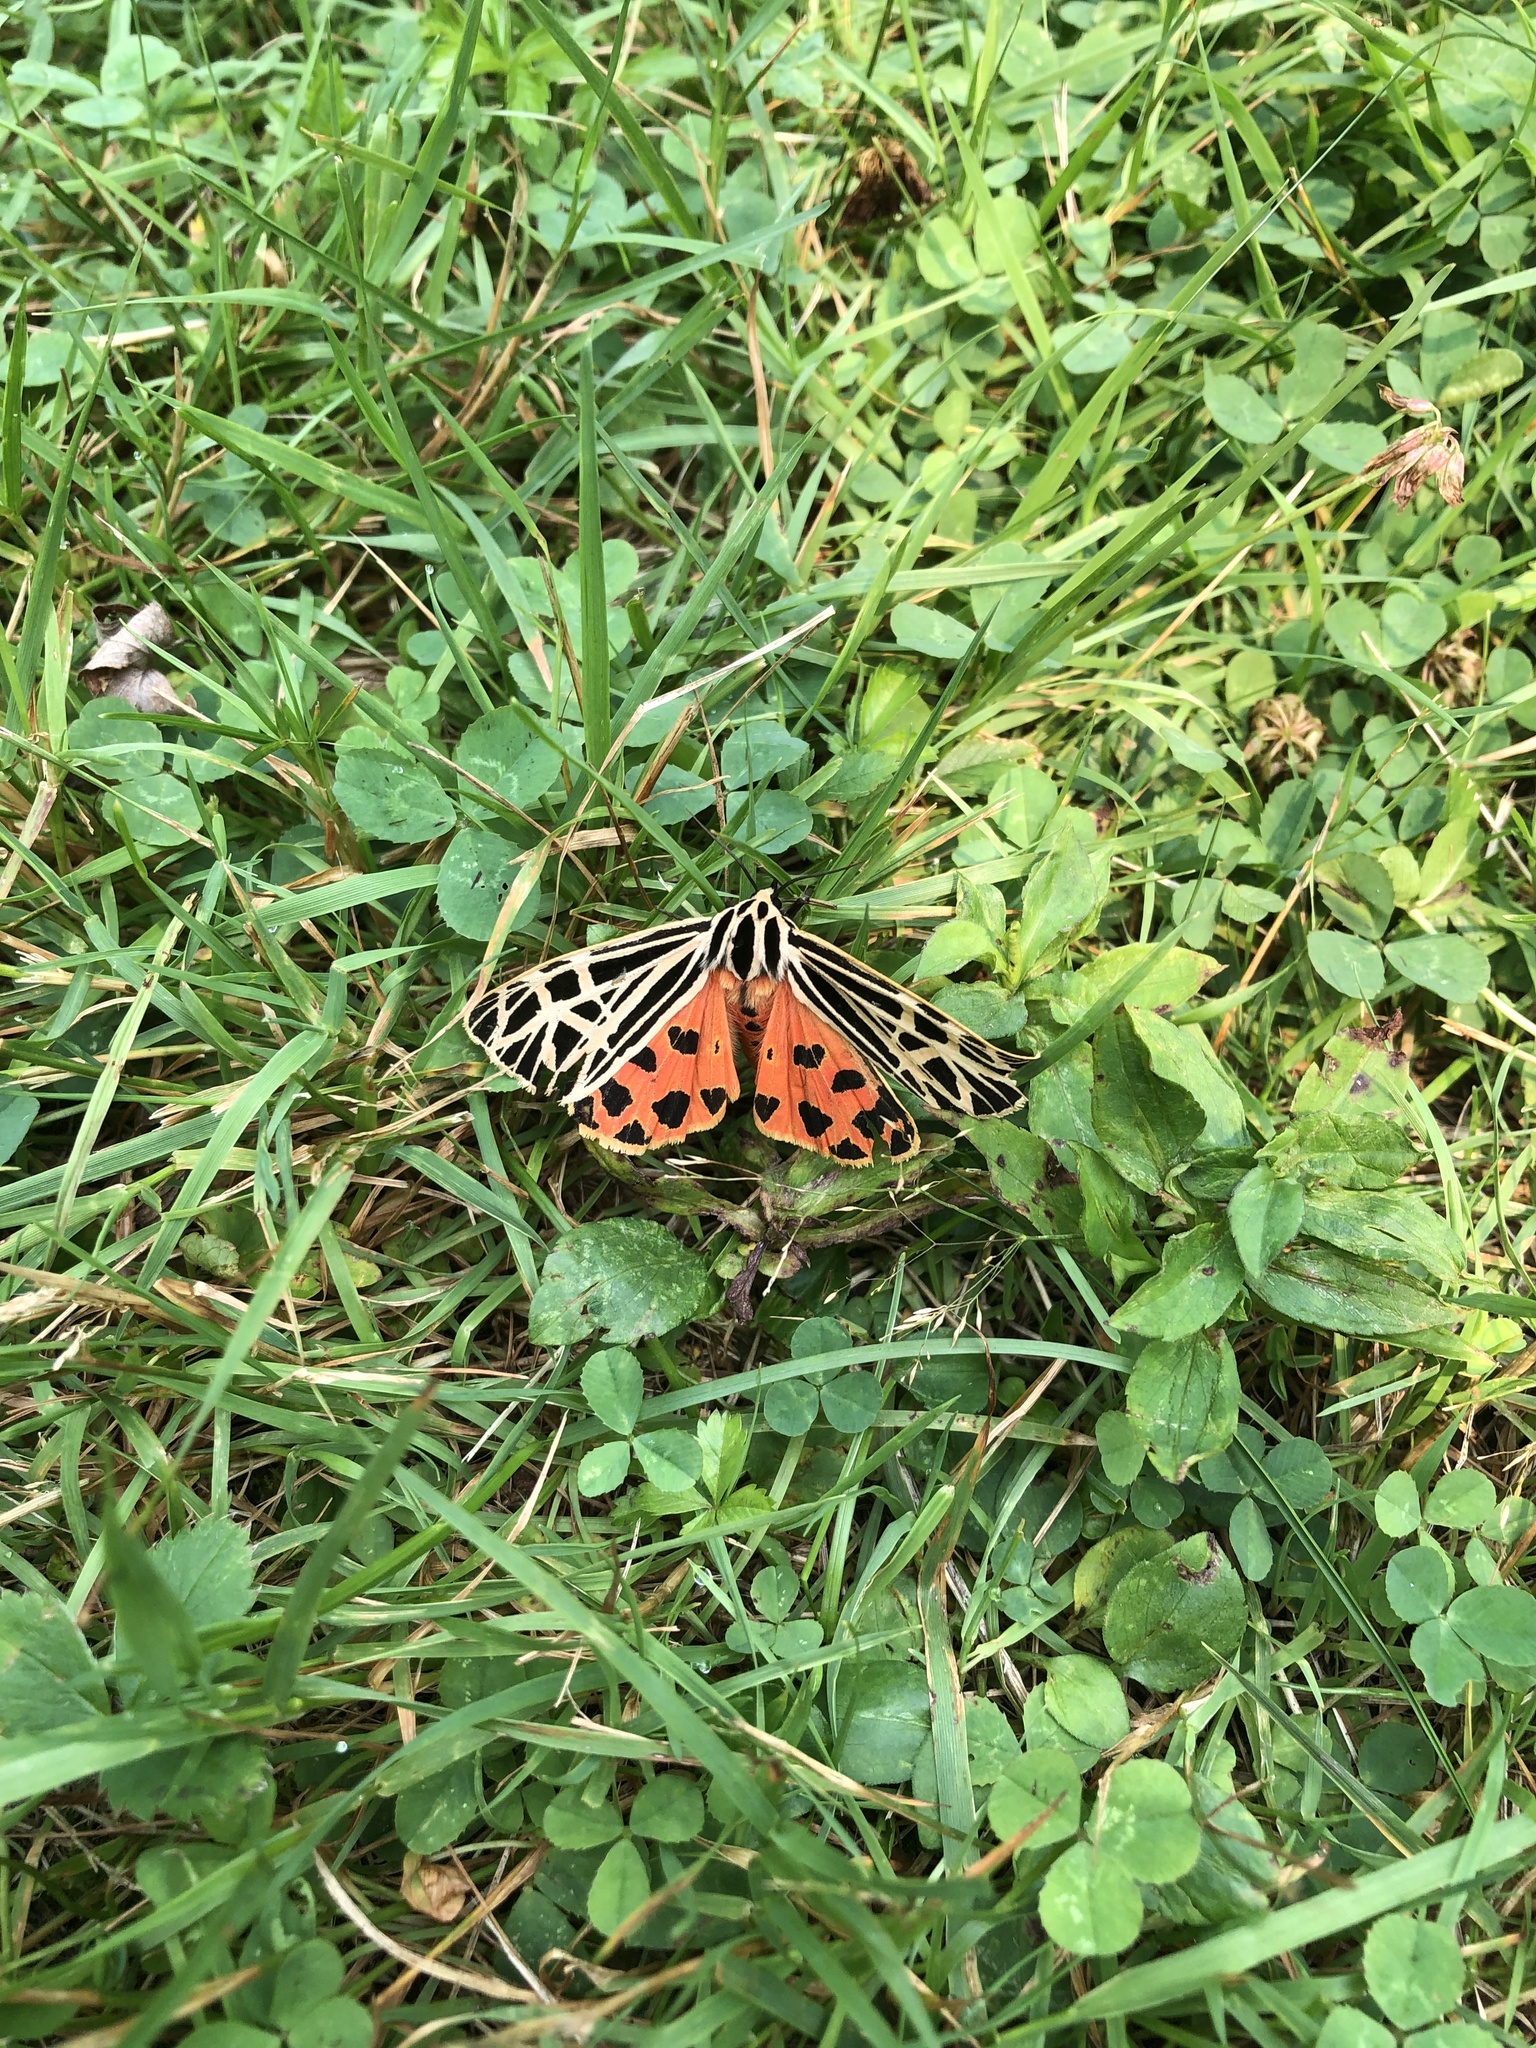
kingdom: Animalia
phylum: Arthropoda
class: Insecta
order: Lepidoptera
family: Erebidae
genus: Grammia
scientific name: Grammia virgo
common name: Virgin tiger moth
